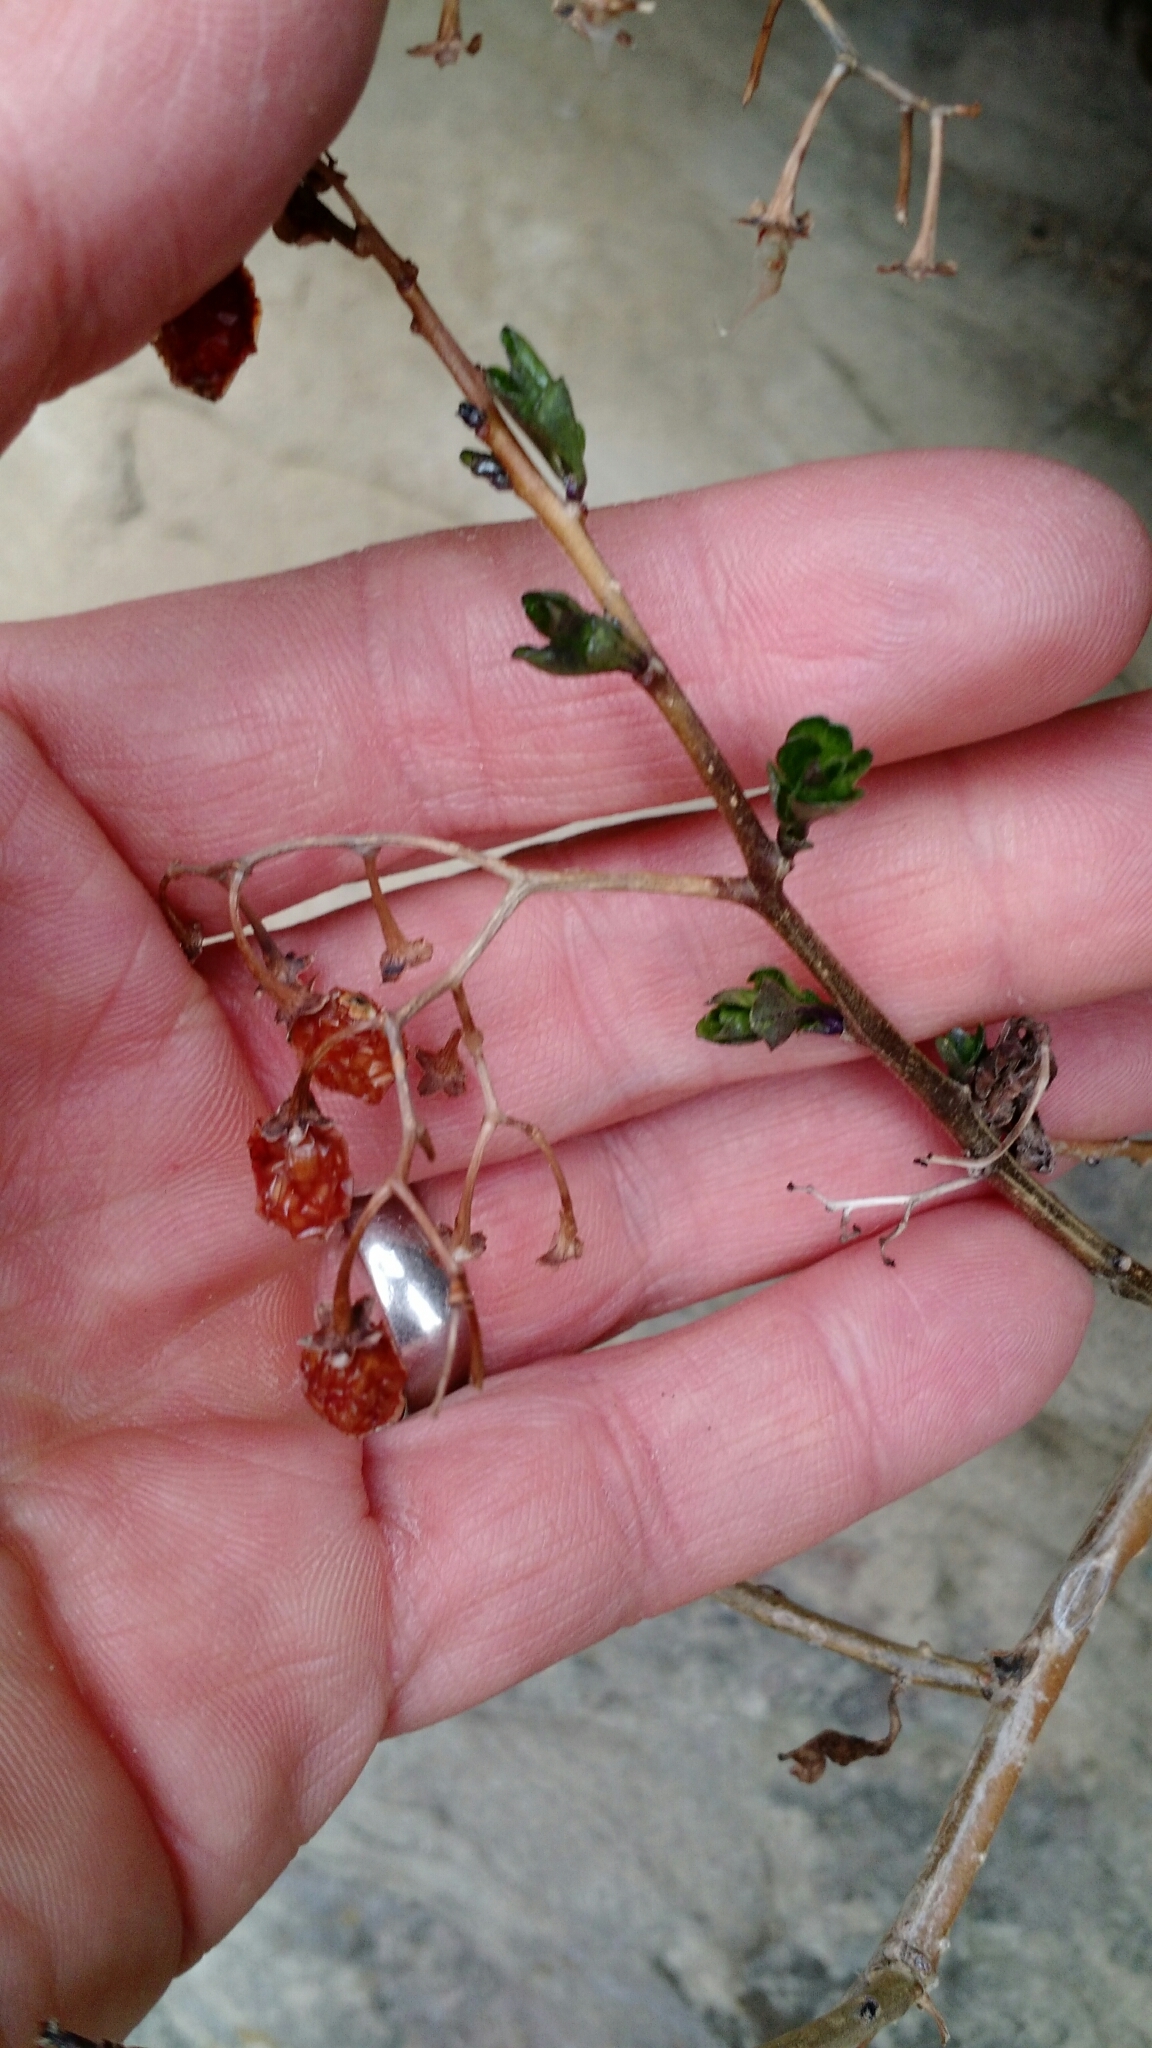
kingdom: Plantae
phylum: Tracheophyta
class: Magnoliopsida
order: Solanales
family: Solanaceae
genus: Solanum
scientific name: Solanum dulcamara
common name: Climbing nightshade
